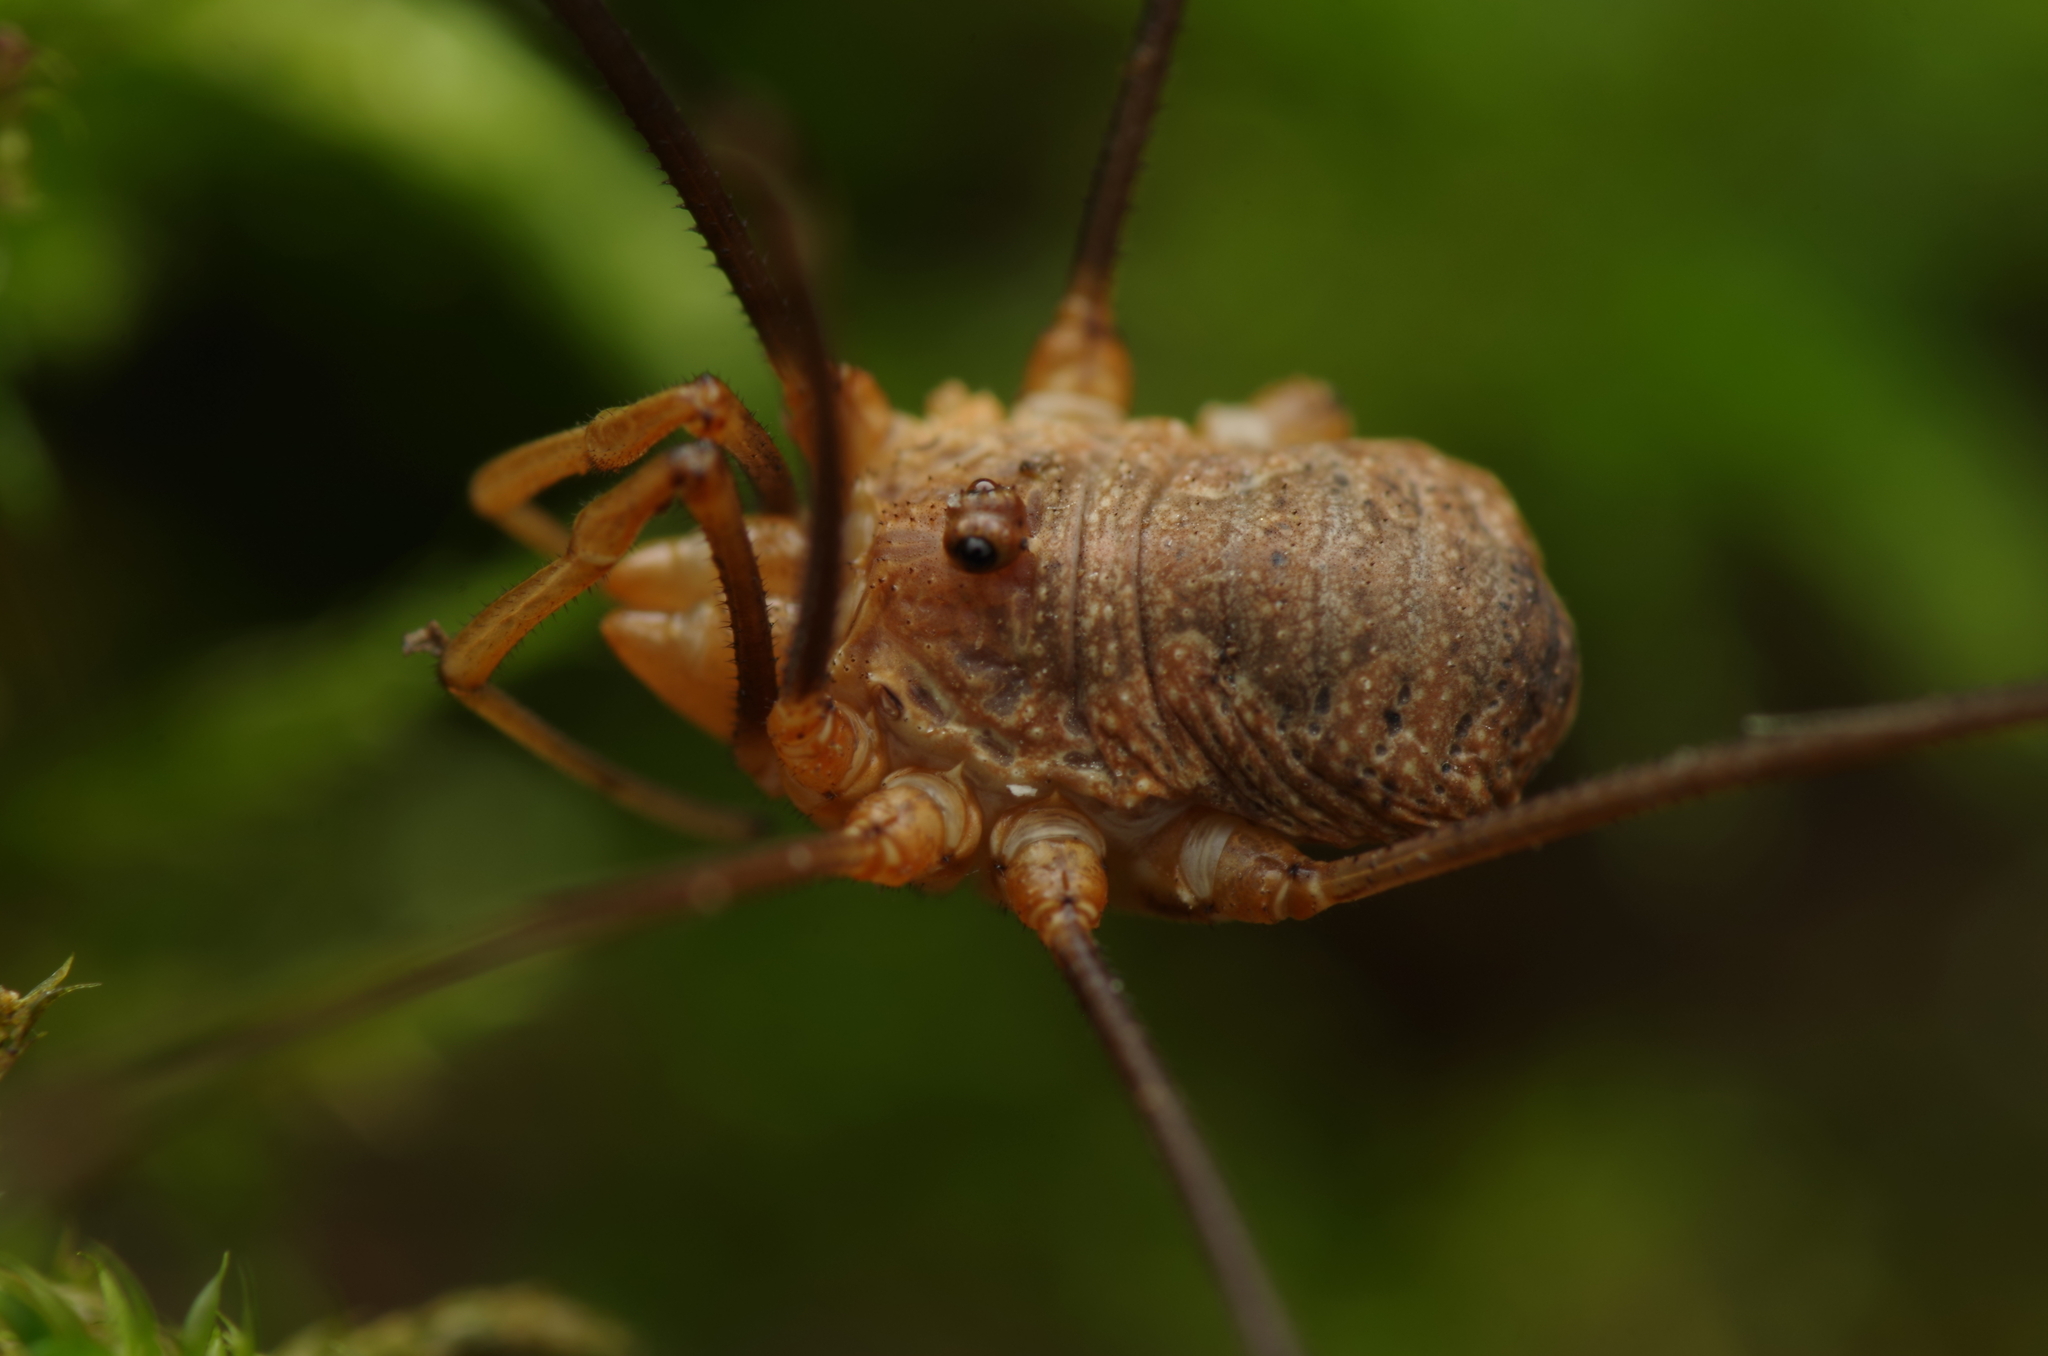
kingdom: Animalia
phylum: Arthropoda
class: Arachnida
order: Opiliones
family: Phalangiidae
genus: Phalangium
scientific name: Phalangium opilio
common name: Daddy longleg
